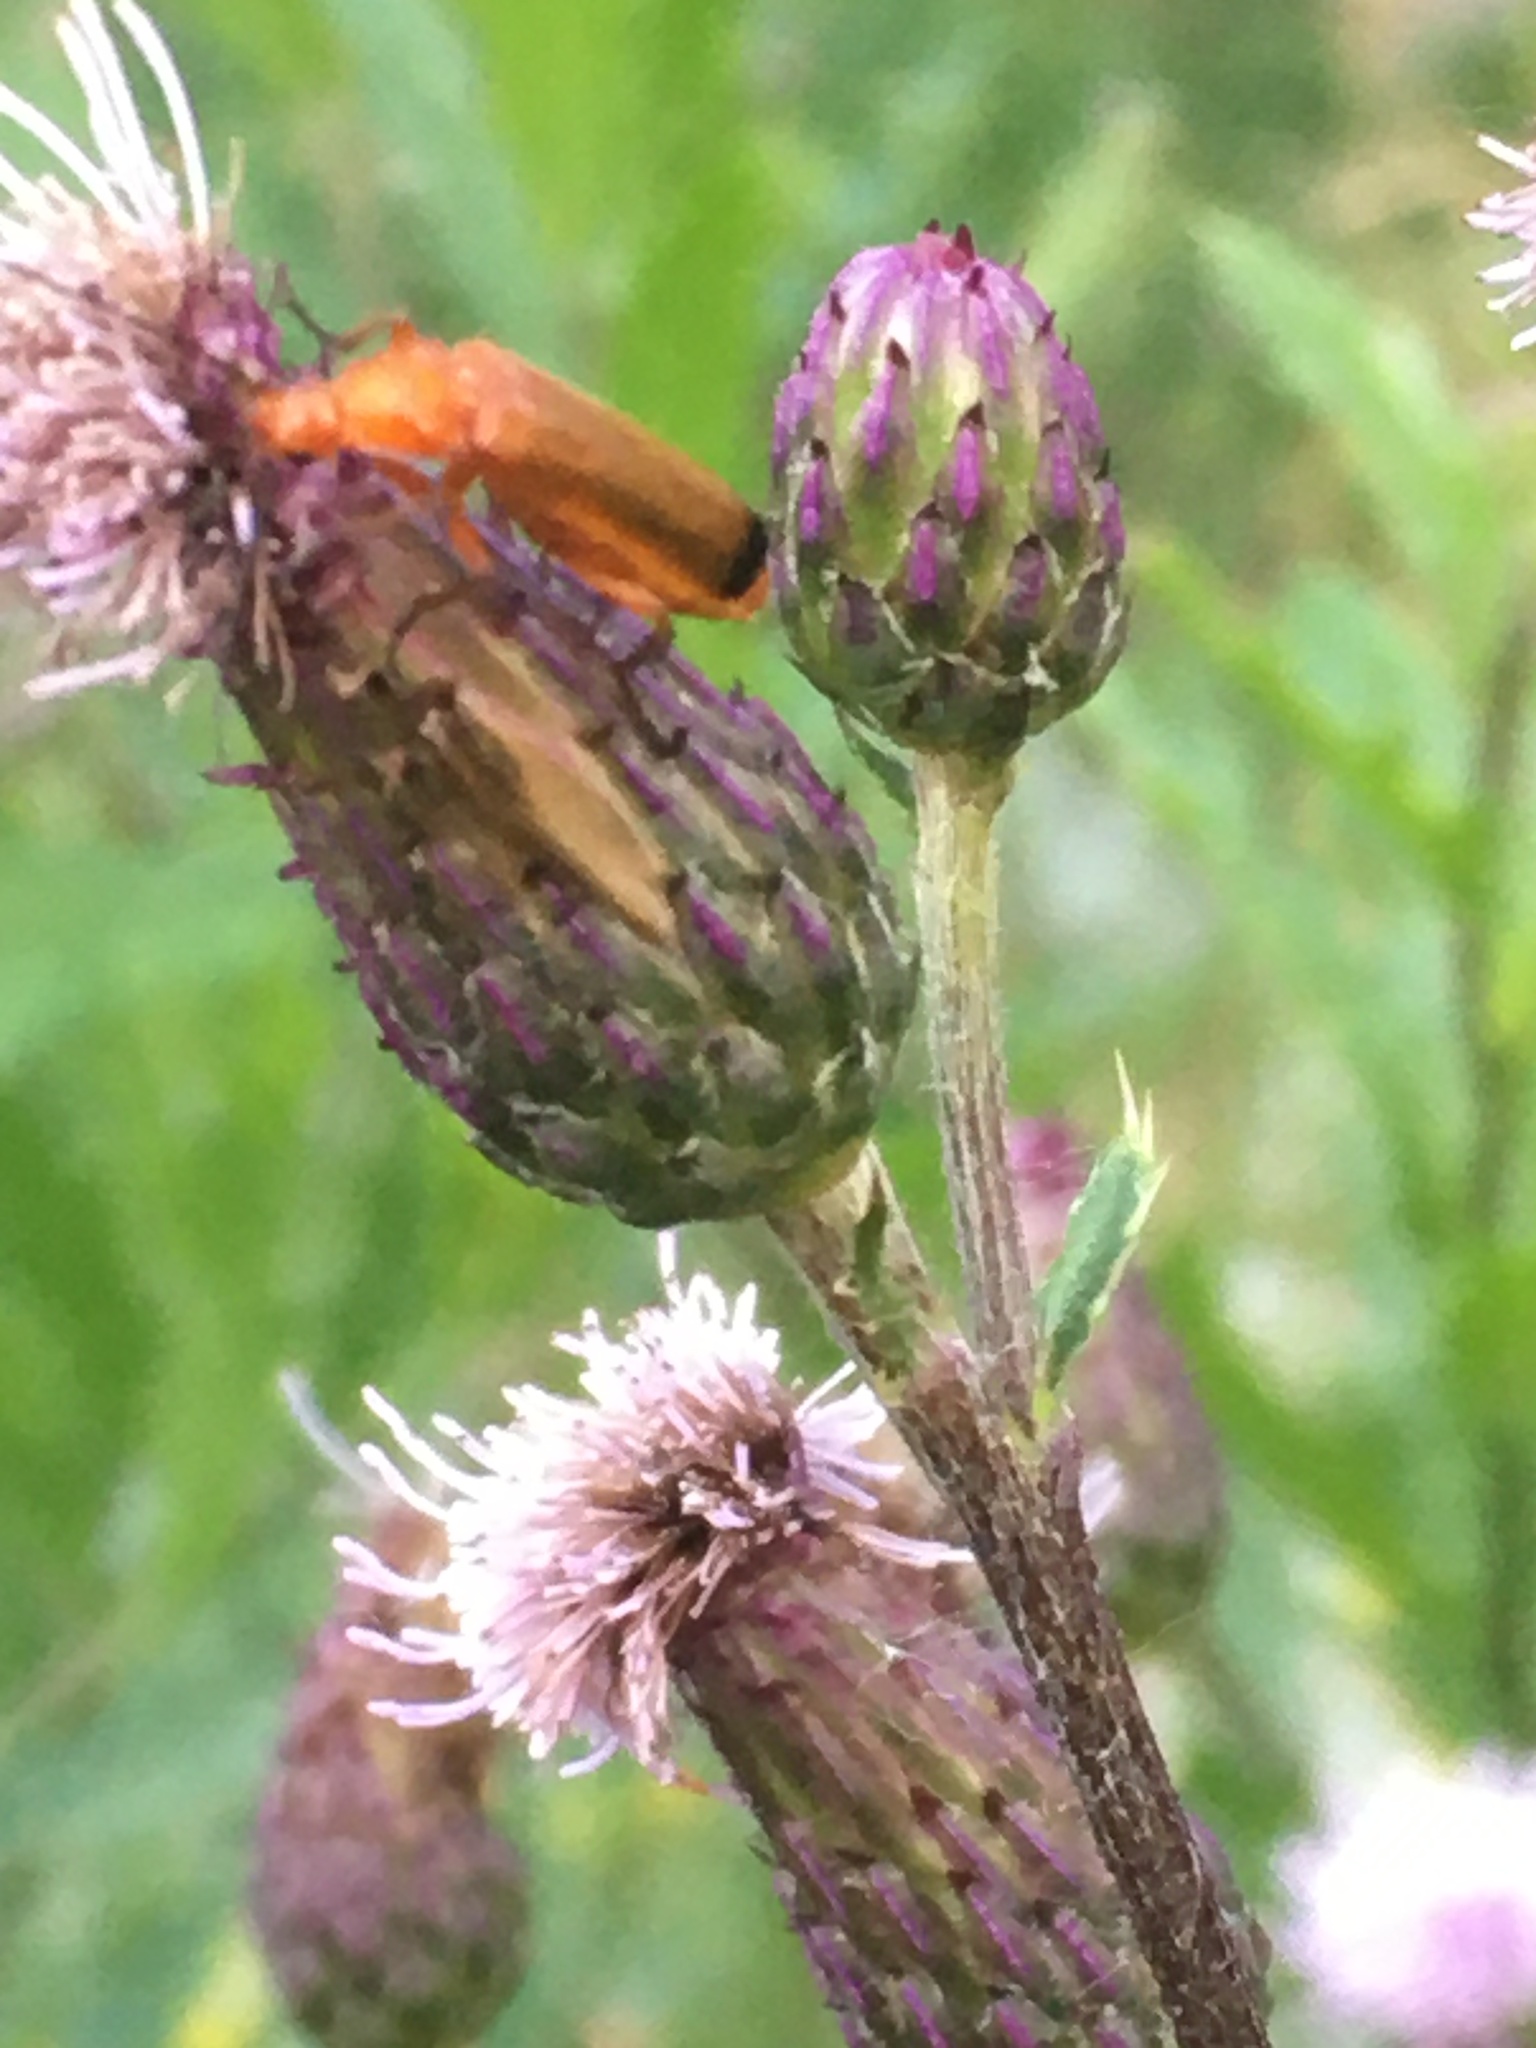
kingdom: Animalia
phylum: Arthropoda
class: Insecta
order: Coleoptera
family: Cantharidae
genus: Rhagonycha
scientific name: Rhagonycha fulva
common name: Common red soldier beetle
